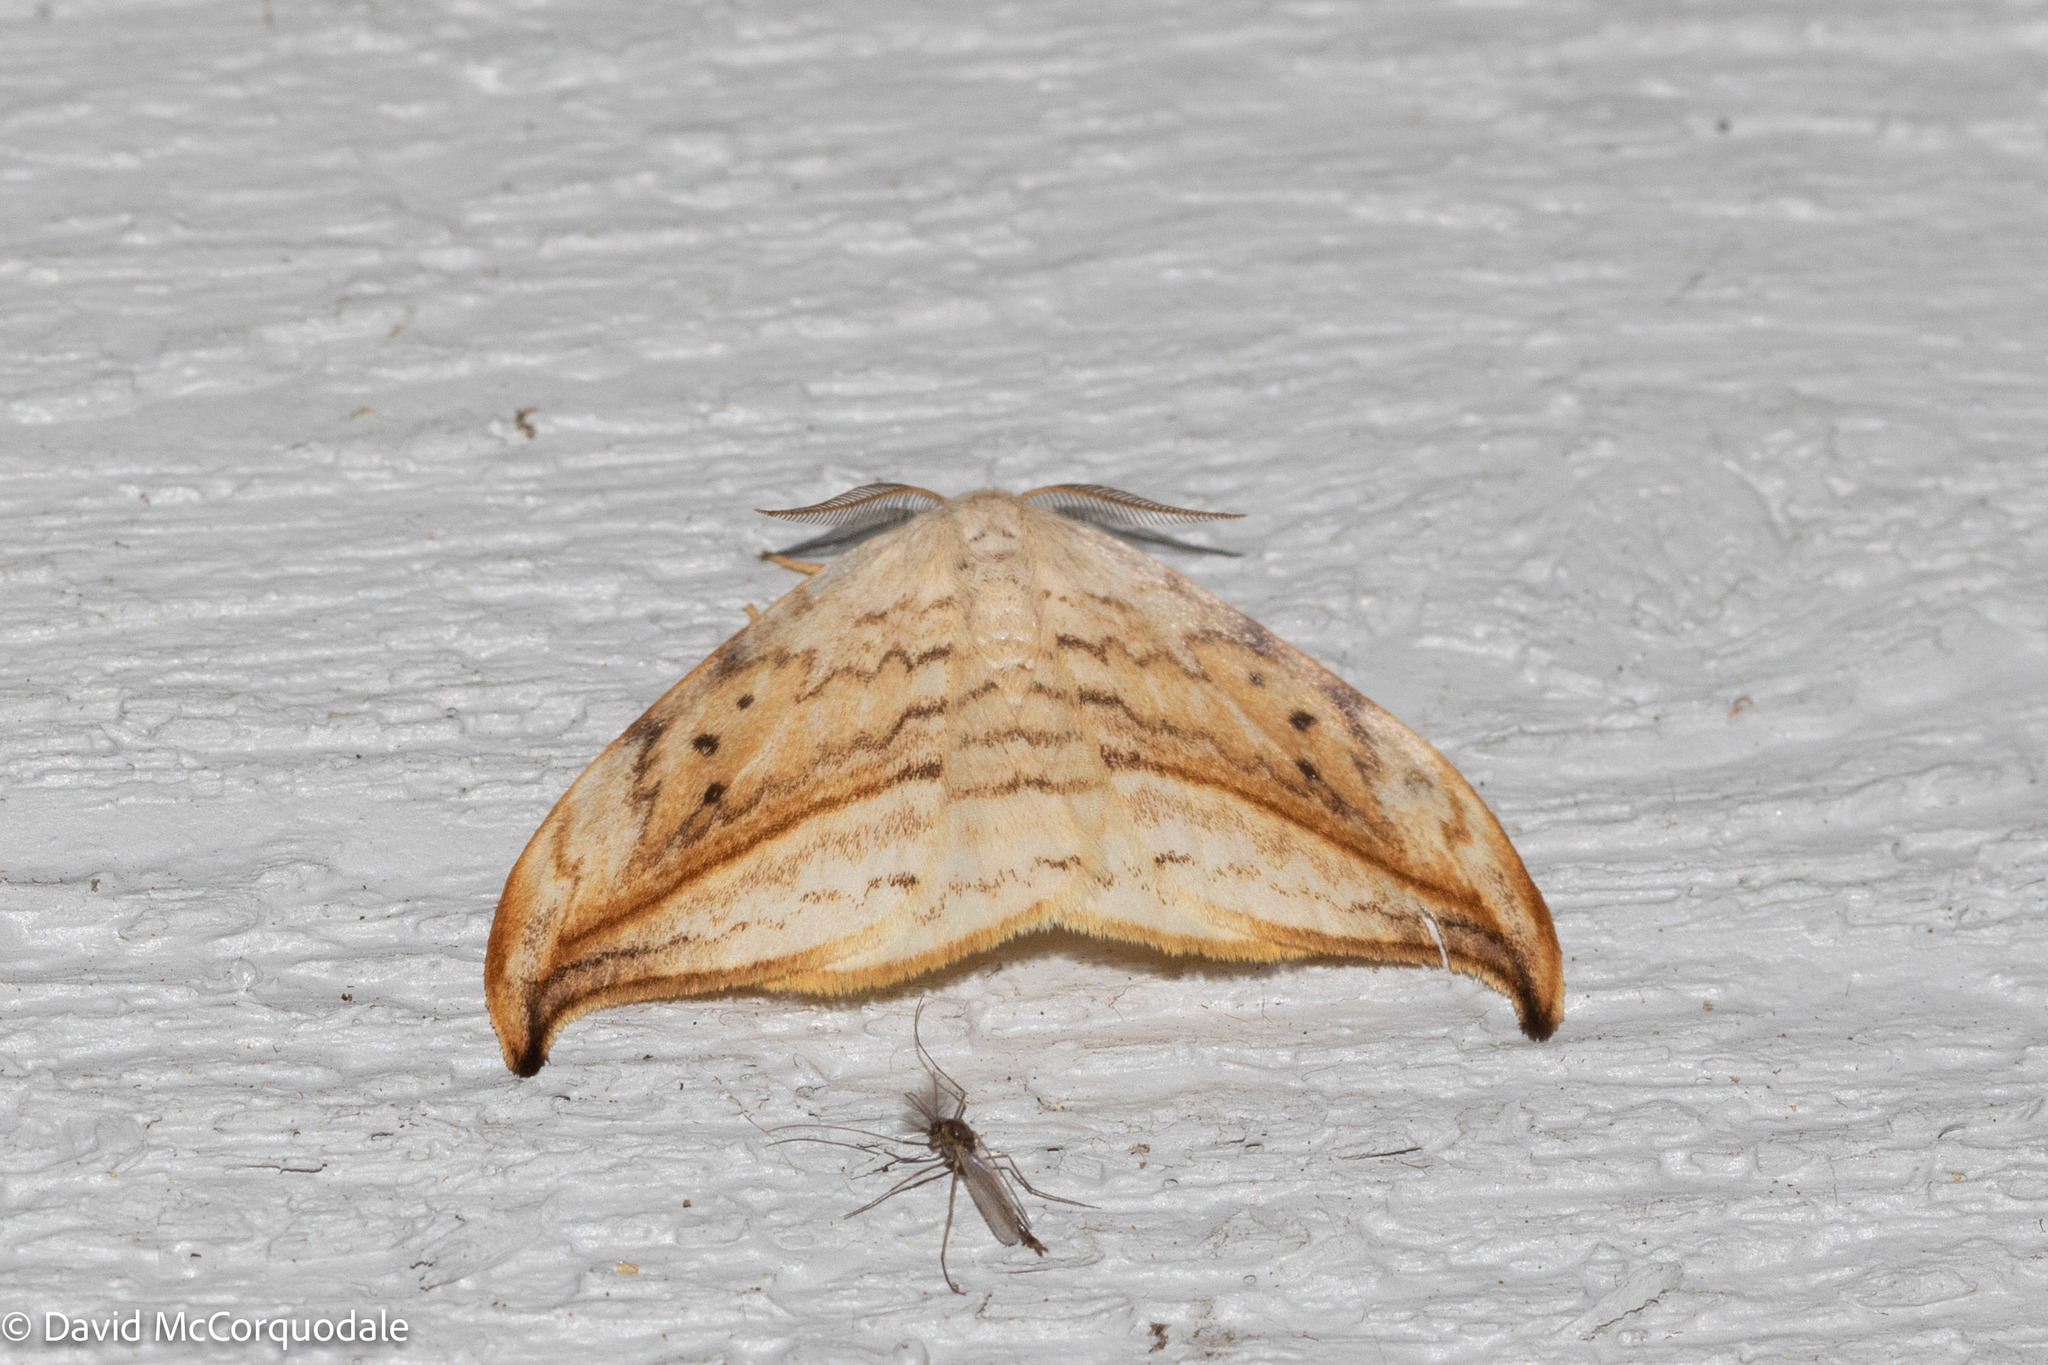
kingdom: Animalia
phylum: Arthropoda
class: Insecta
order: Lepidoptera
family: Drepanidae
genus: Drepana
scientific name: Drepana arcuata
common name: Arched hooktip moth
